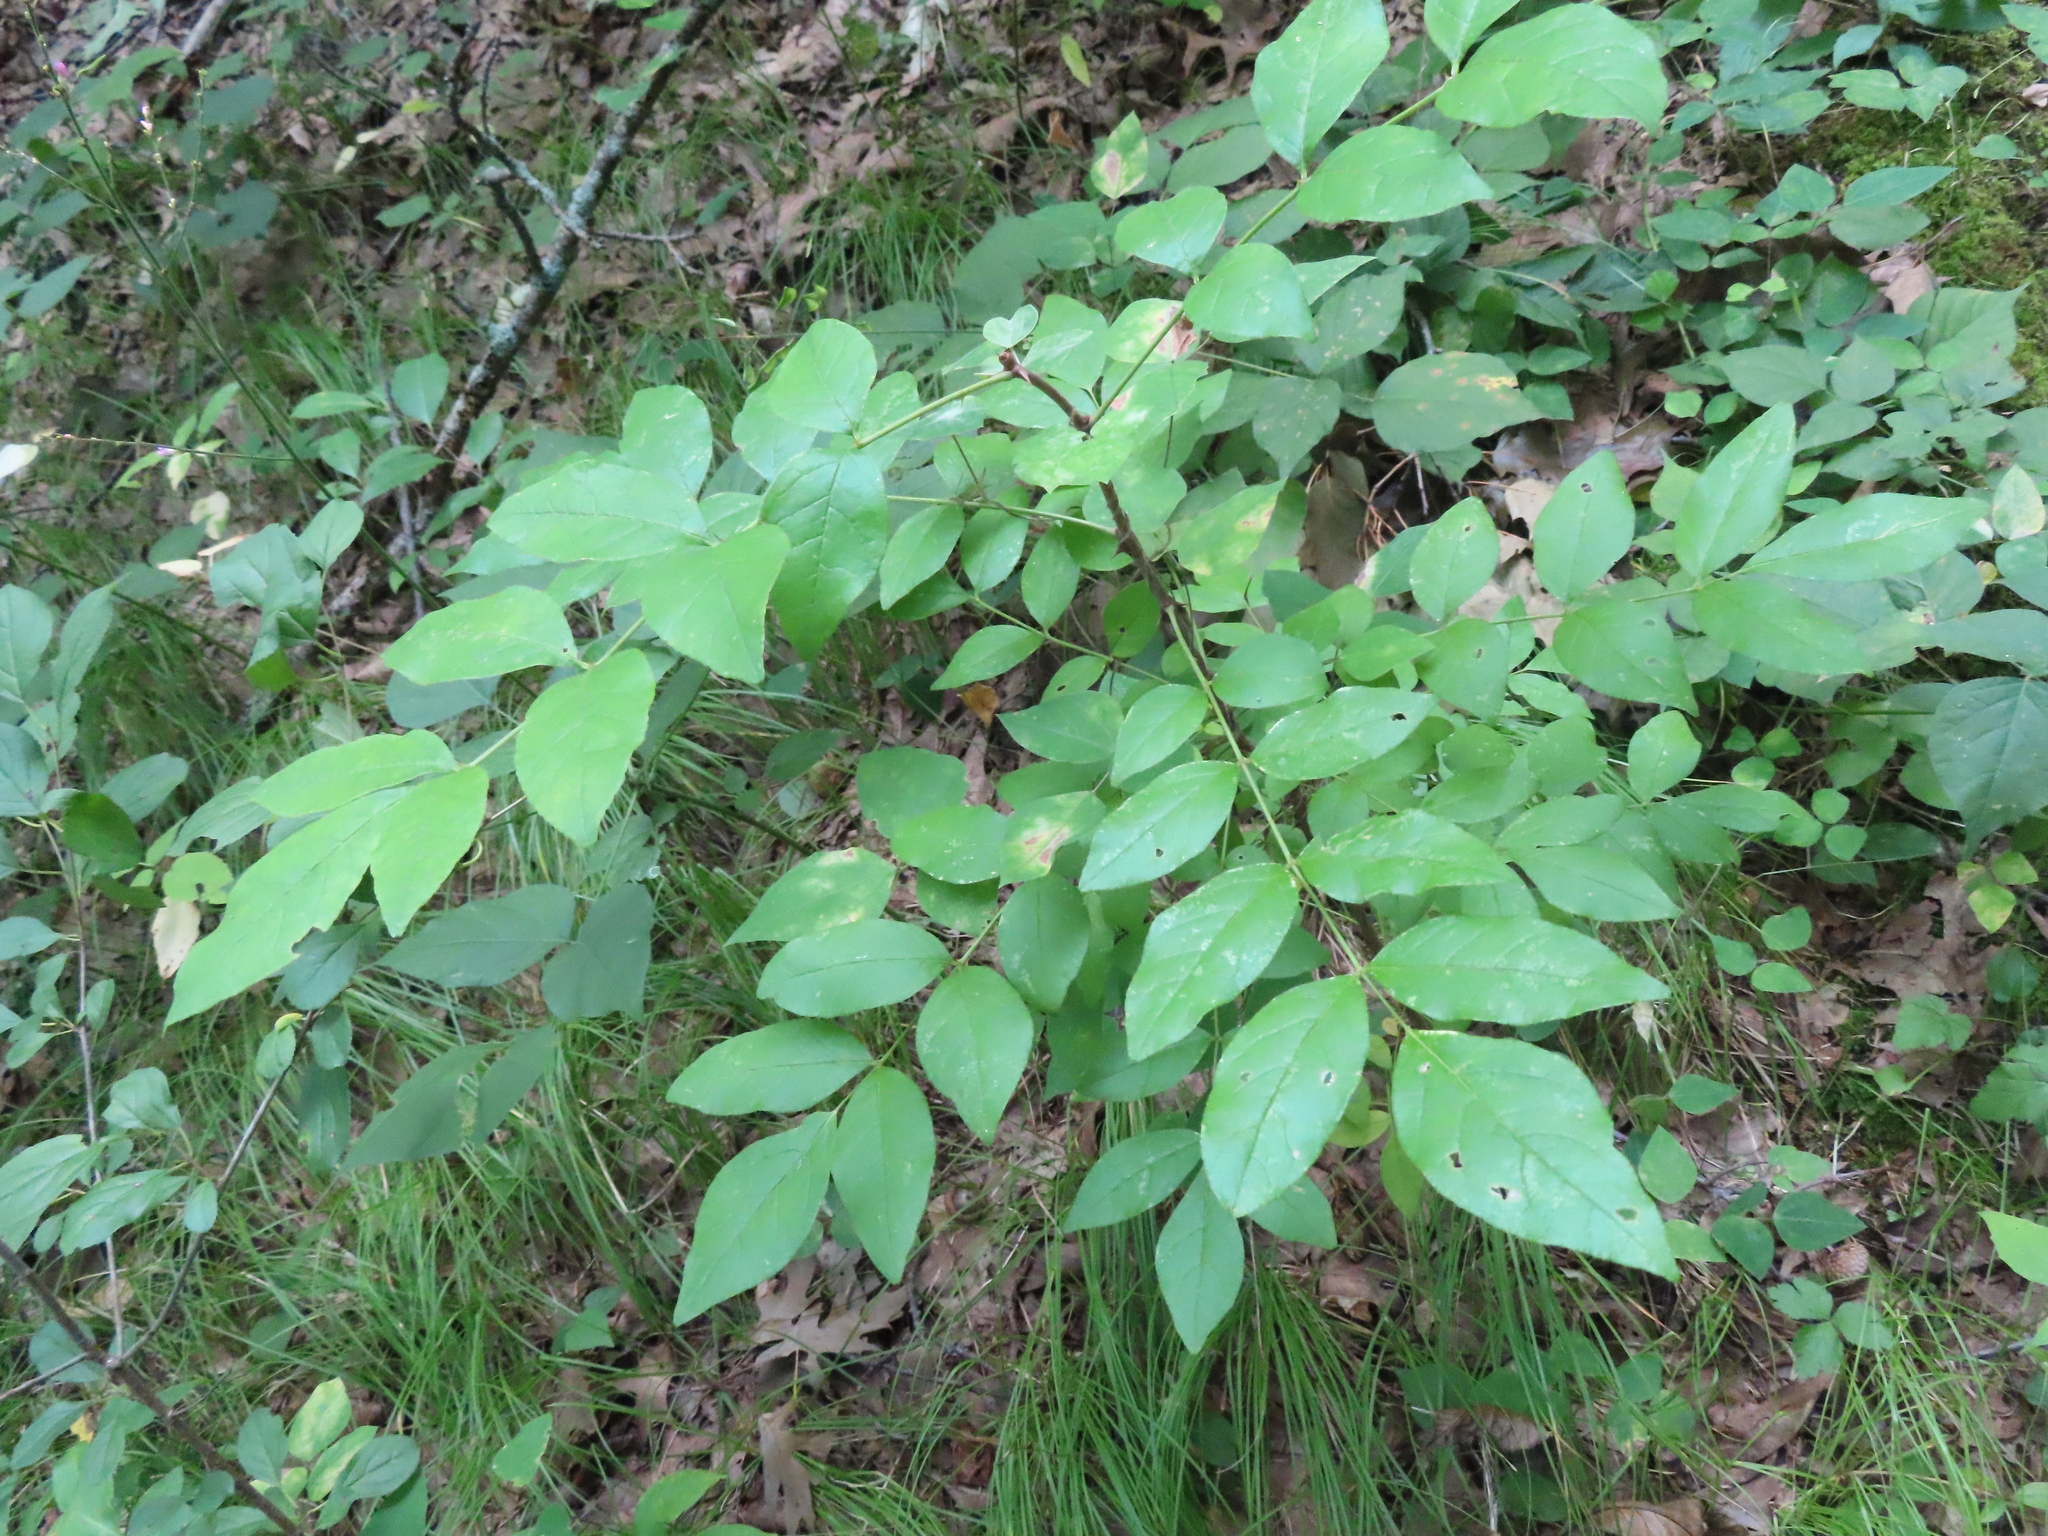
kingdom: Plantae
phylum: Tracheophyta
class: Magnoliopsida
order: Sapindales
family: Rutaceae
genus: Zanthoxylum
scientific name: Zanthoxylum americanum
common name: Northern prickly-ash
